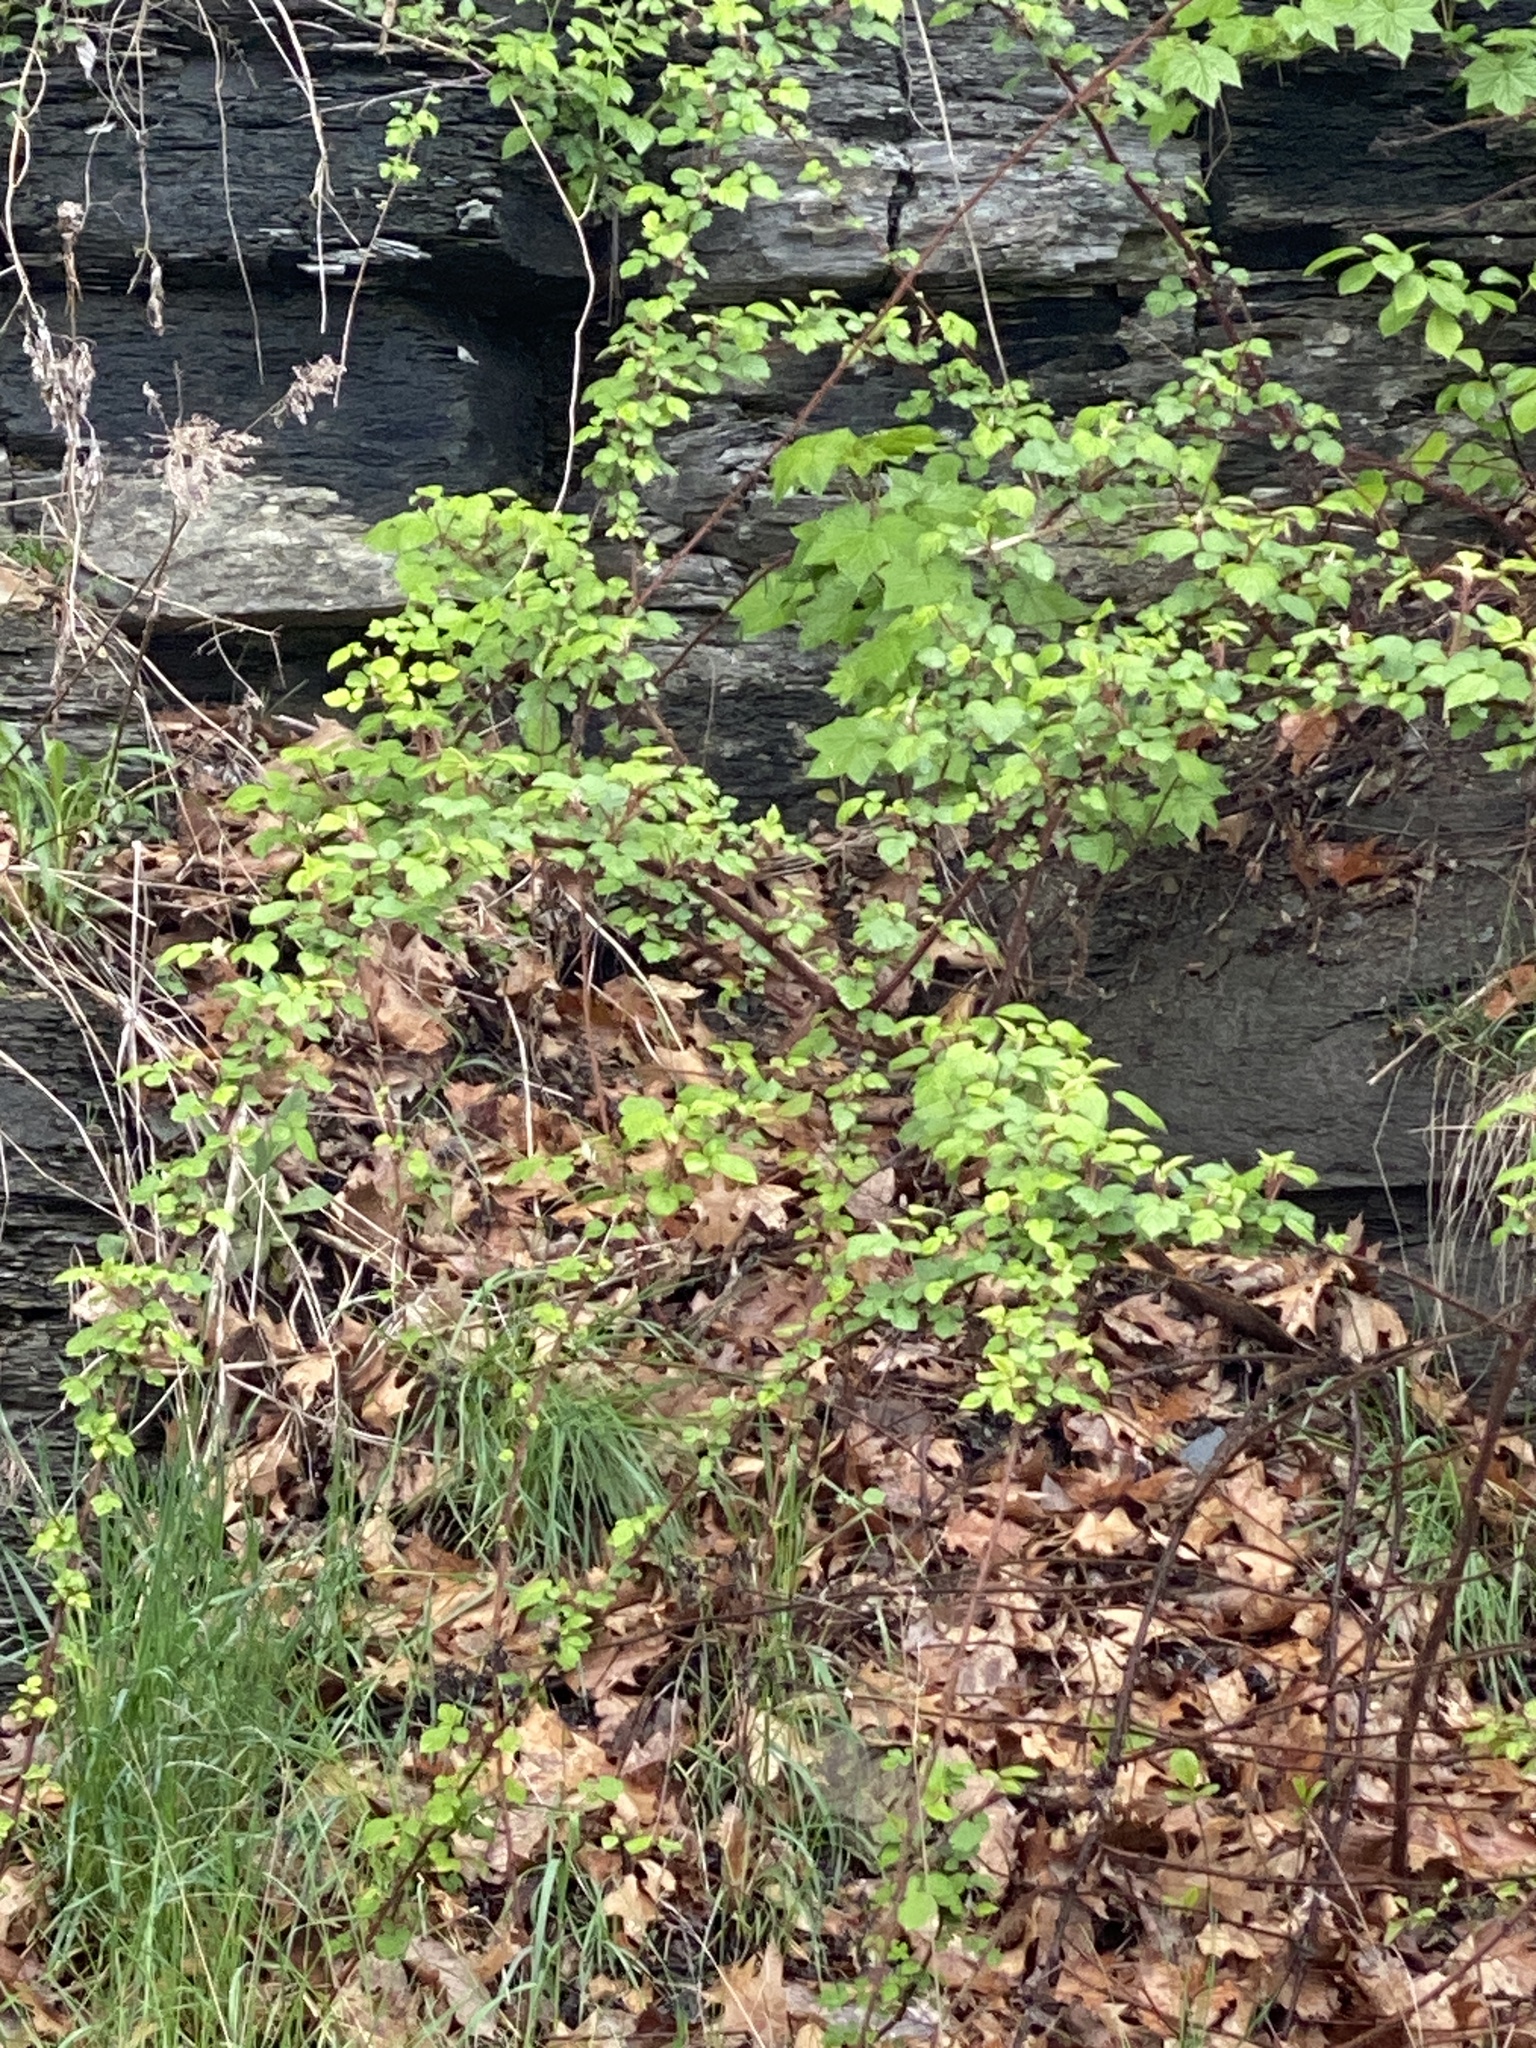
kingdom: Plantae
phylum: Tracheophyta
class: Magnoliopsida
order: Rosales
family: Rosaceae
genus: Rubus
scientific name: Rubus phoenicolasius
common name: Japanese wineberry
